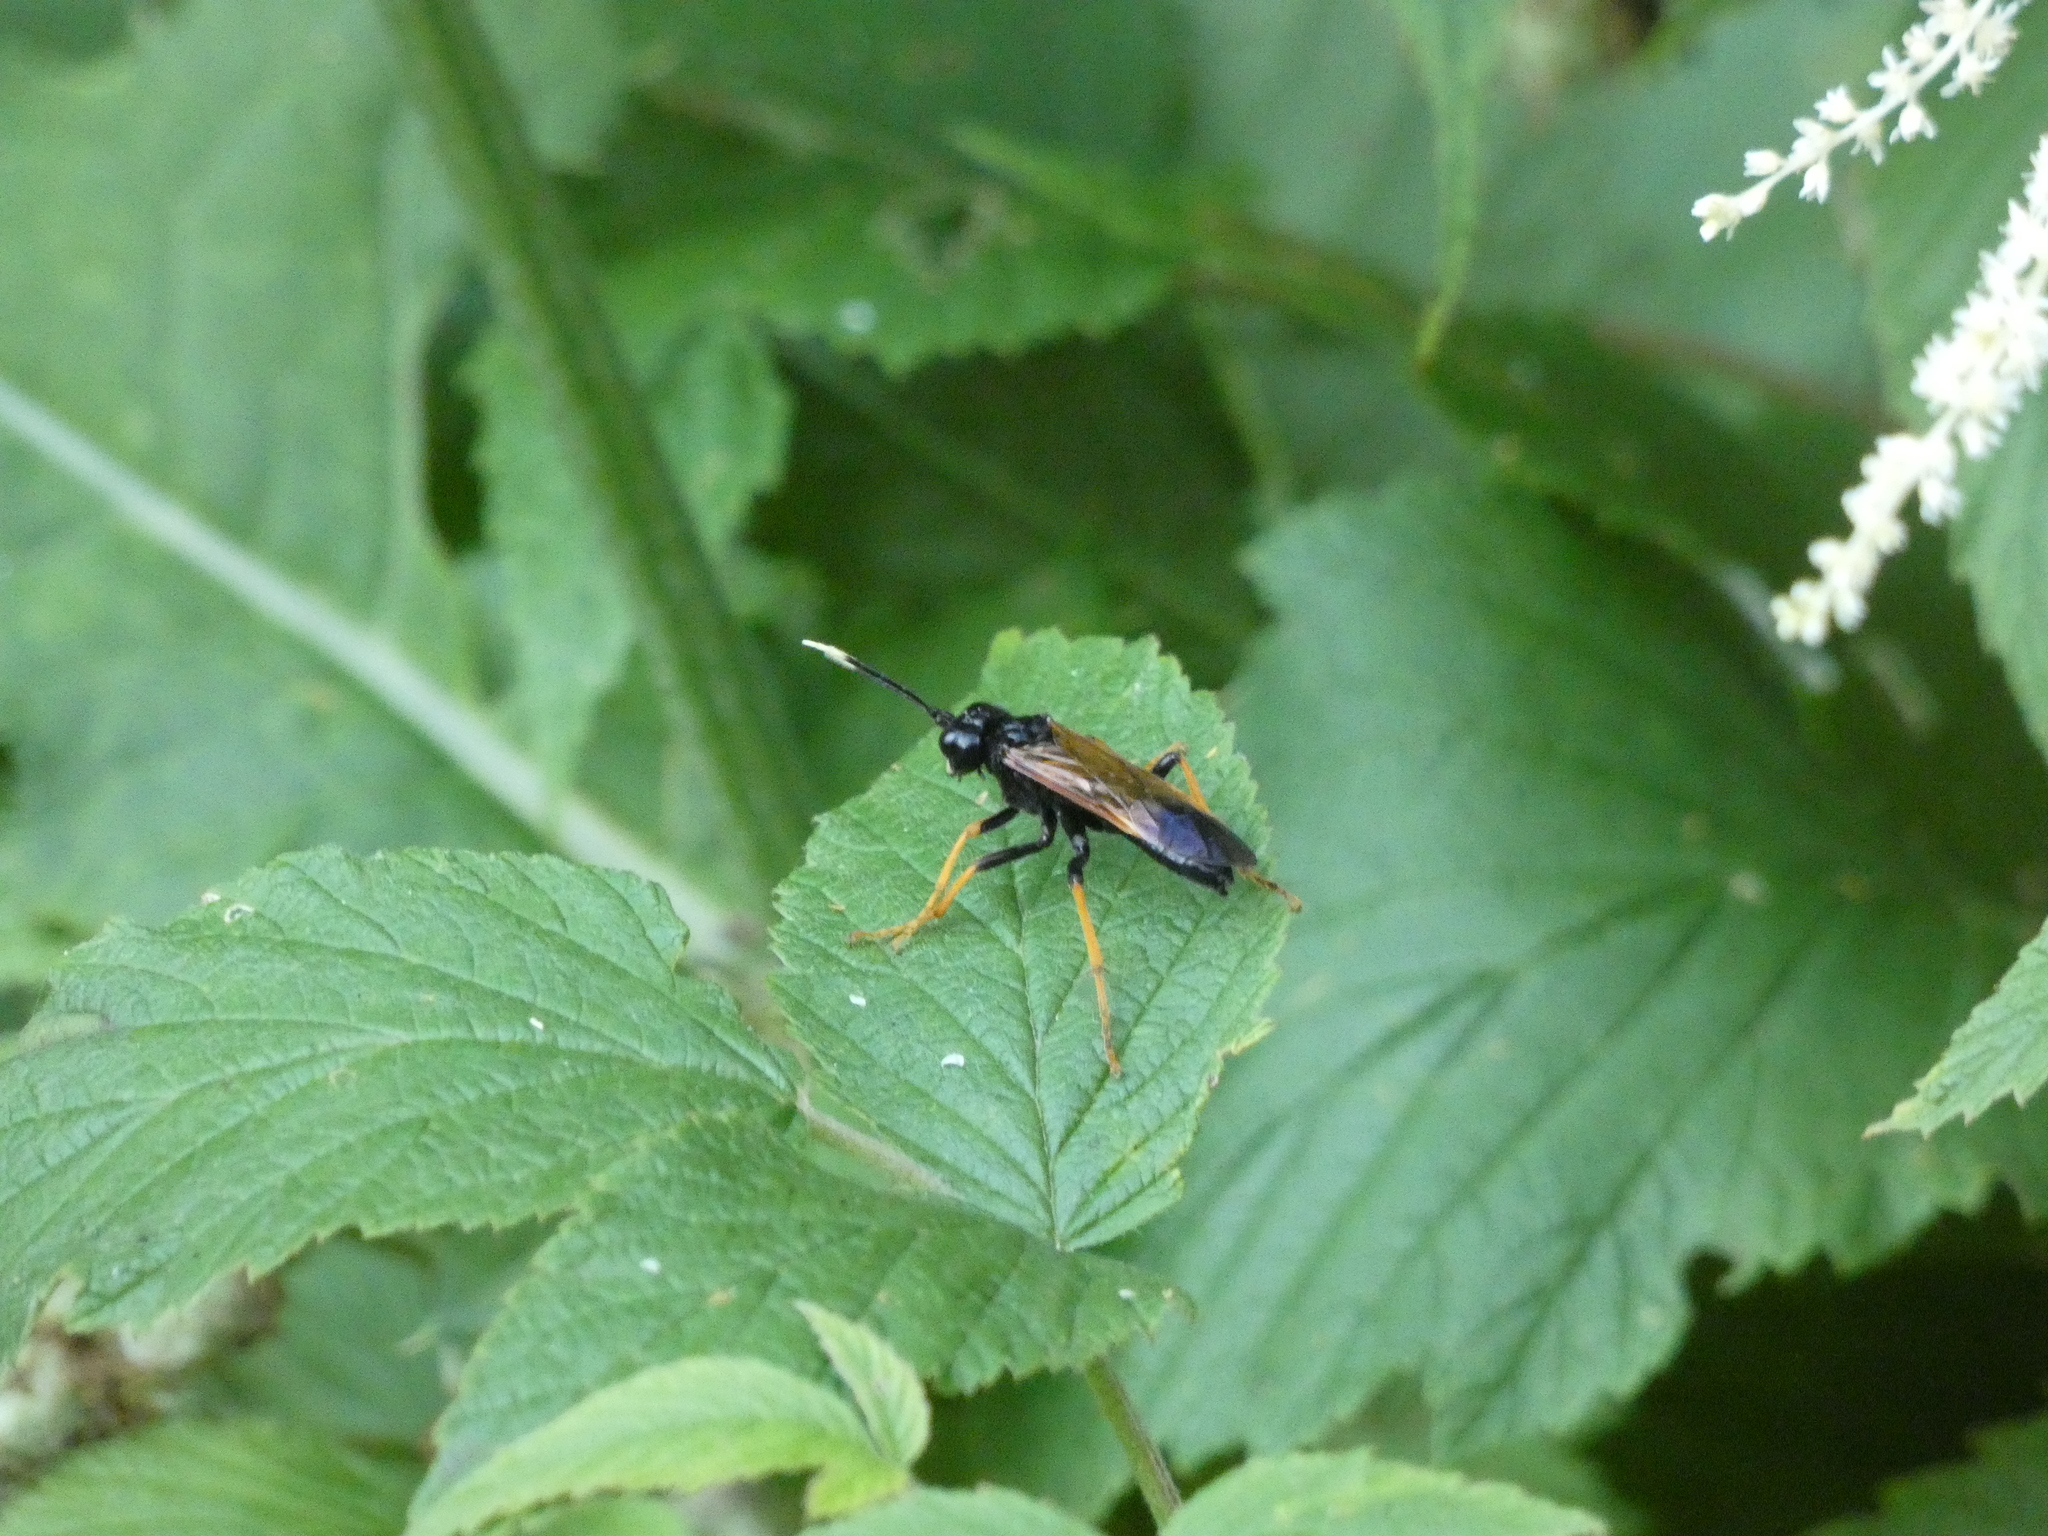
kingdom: Animalia
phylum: Arthropoda
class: Insecta
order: Hymenoptera
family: Tenthredinidae
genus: Tenthredo
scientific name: Tenthredo crassa
